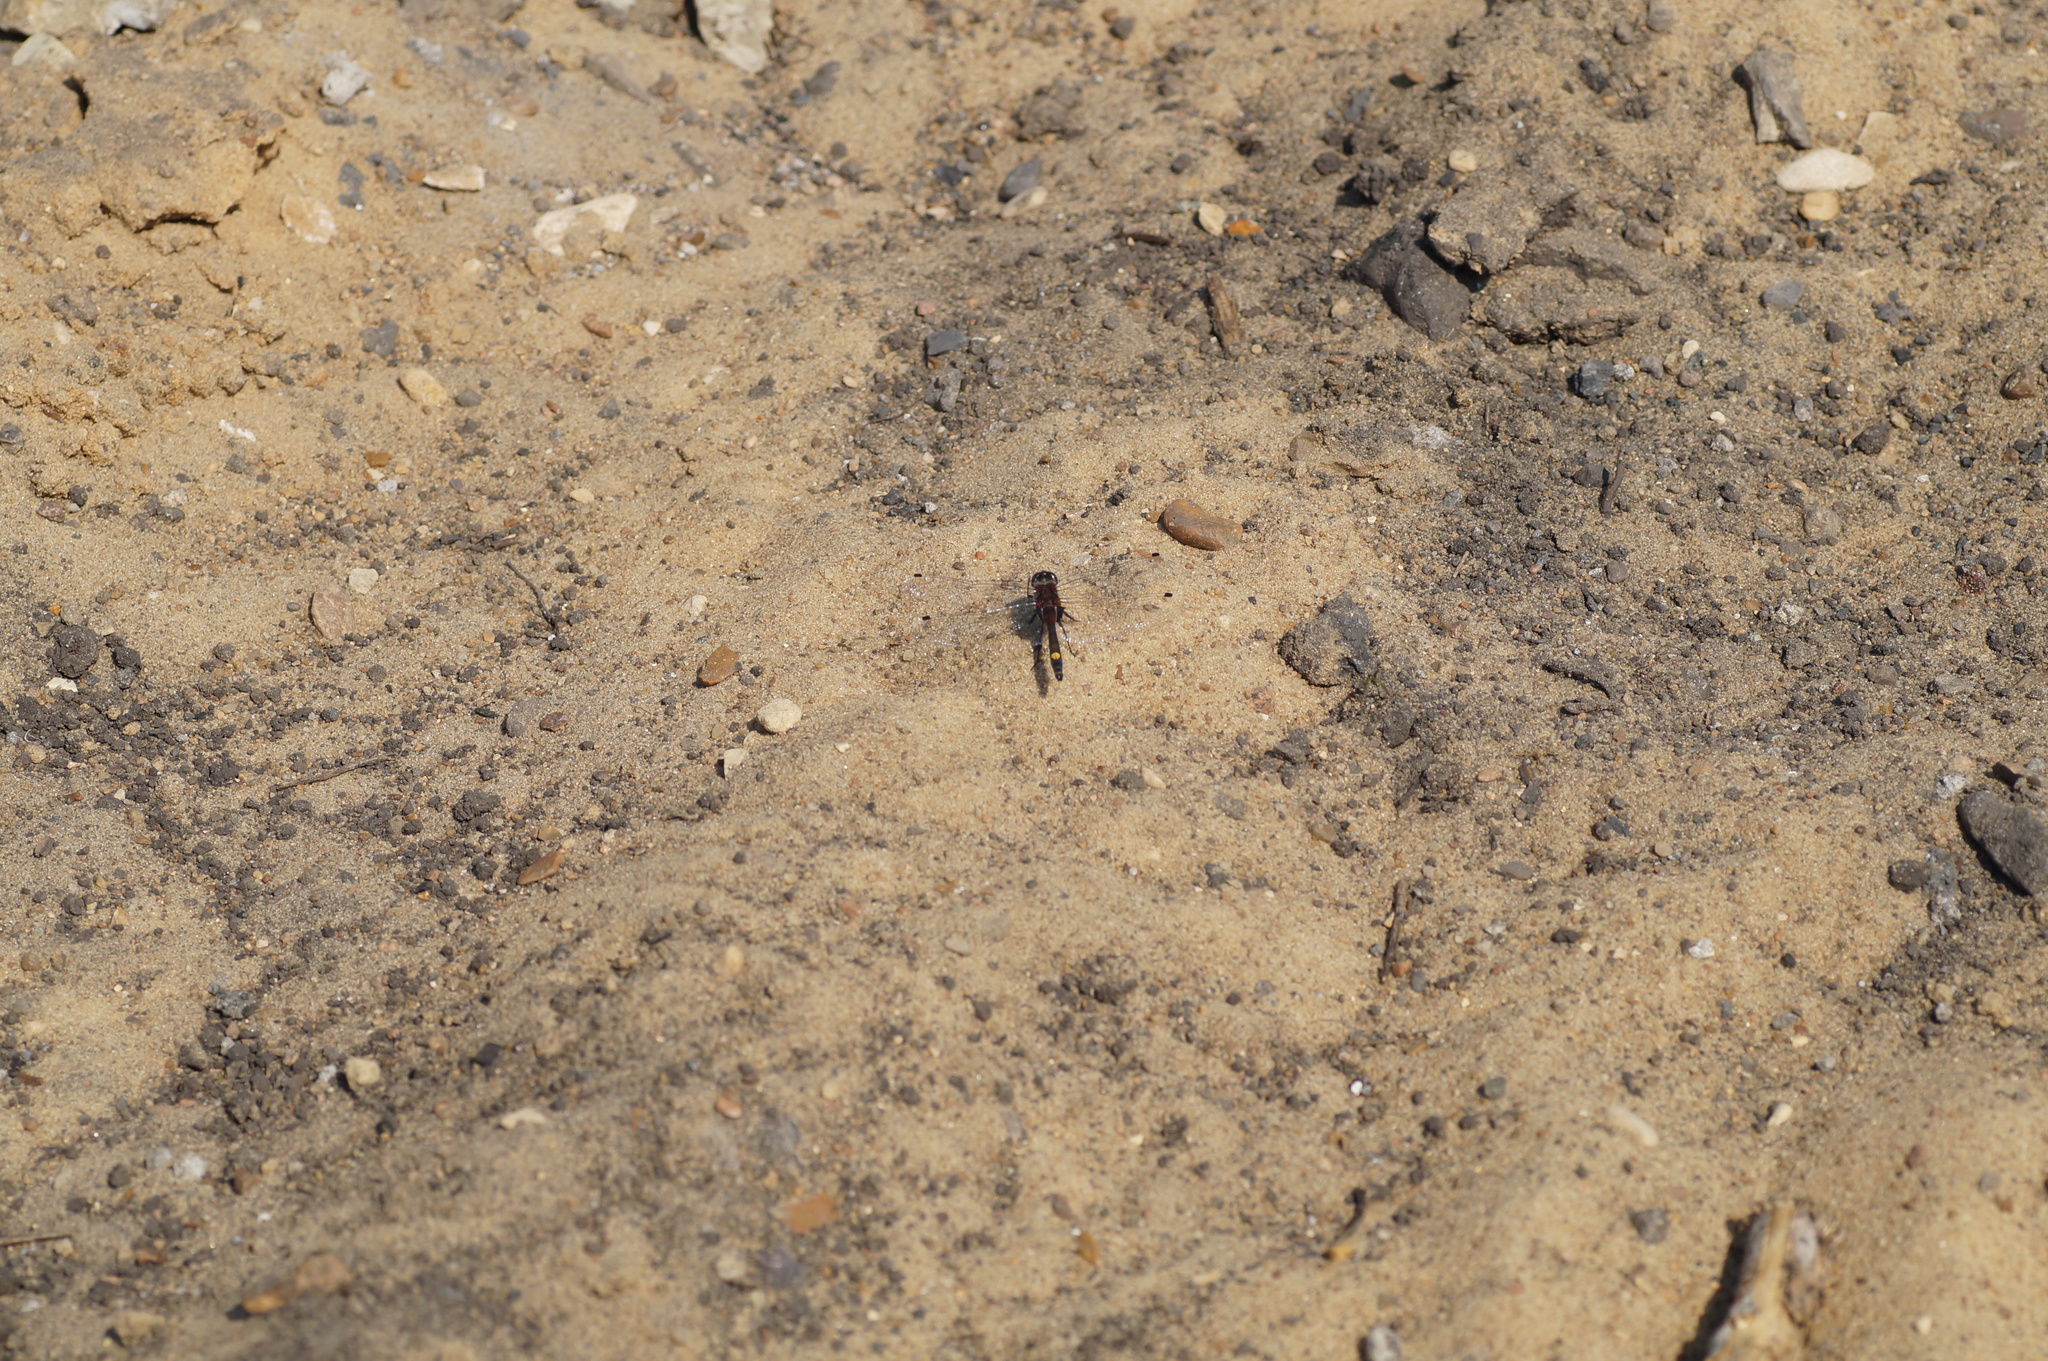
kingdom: Animalia
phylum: Arthropoda
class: Insecta
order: Odonata
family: Libellulidae
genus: Leucorrhinia
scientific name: Leucorrhinia pectoralis
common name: Yellow-spotted whiteface
